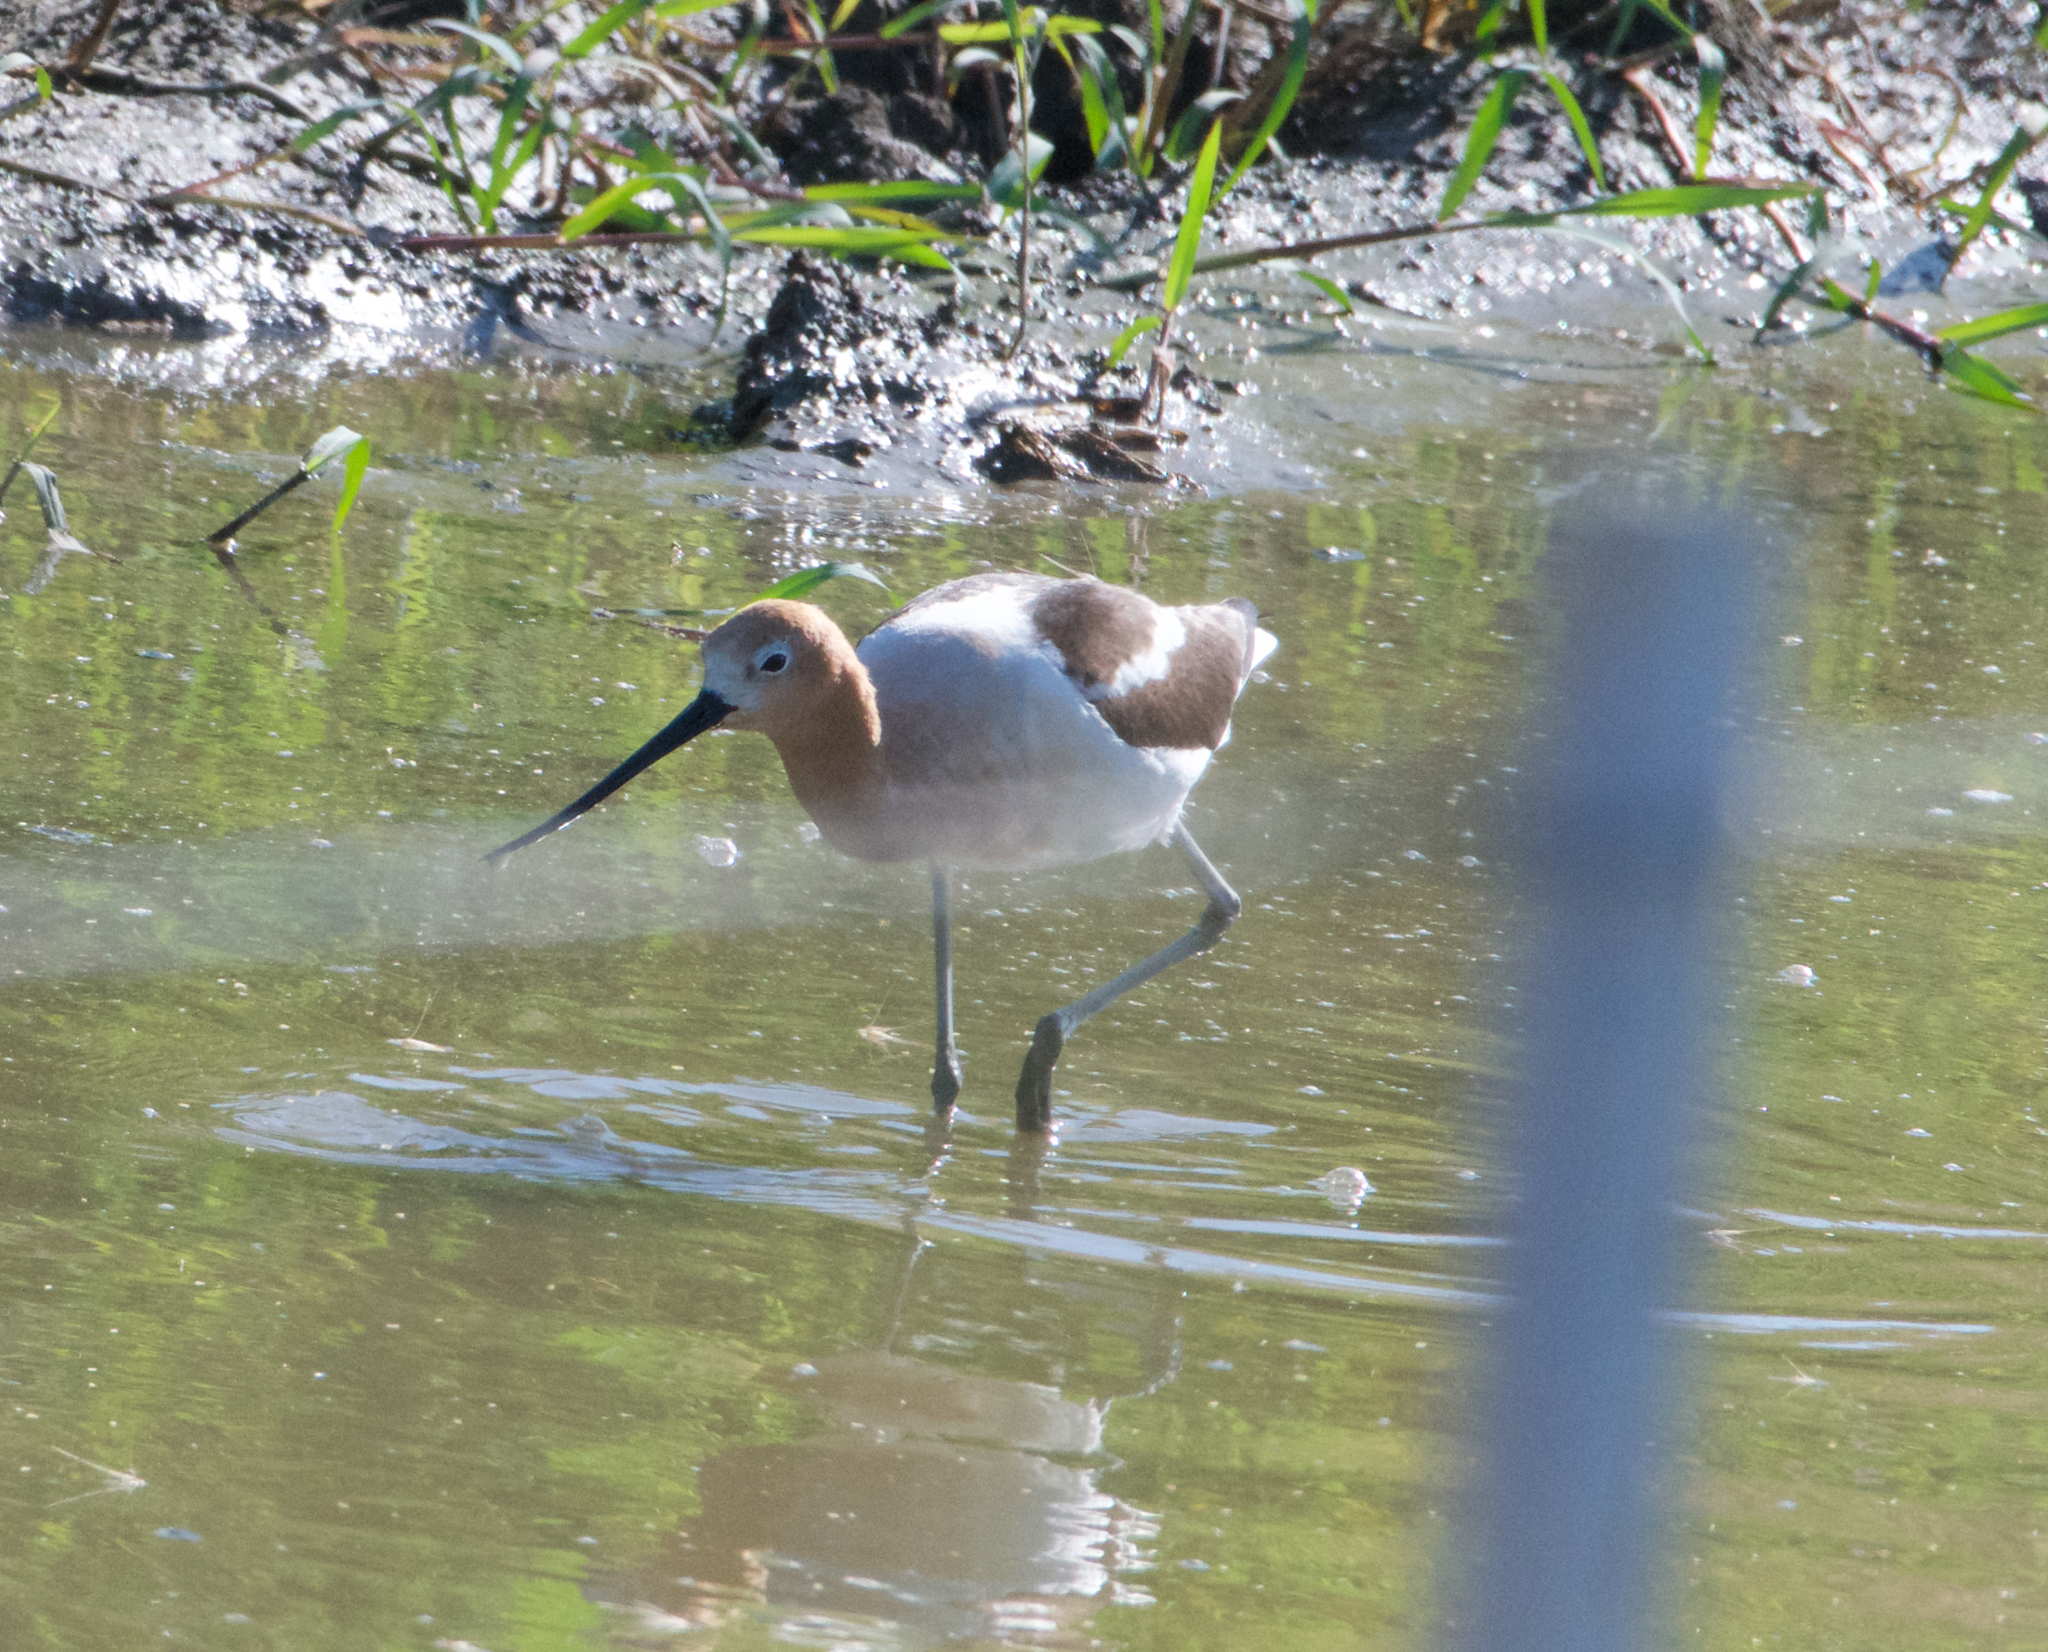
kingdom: Animalia
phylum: Chordata
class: Aves
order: Charadriiformes
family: Recurvirostridae
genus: Recurvirostra
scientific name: Recurvirostra americana
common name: American avocet
